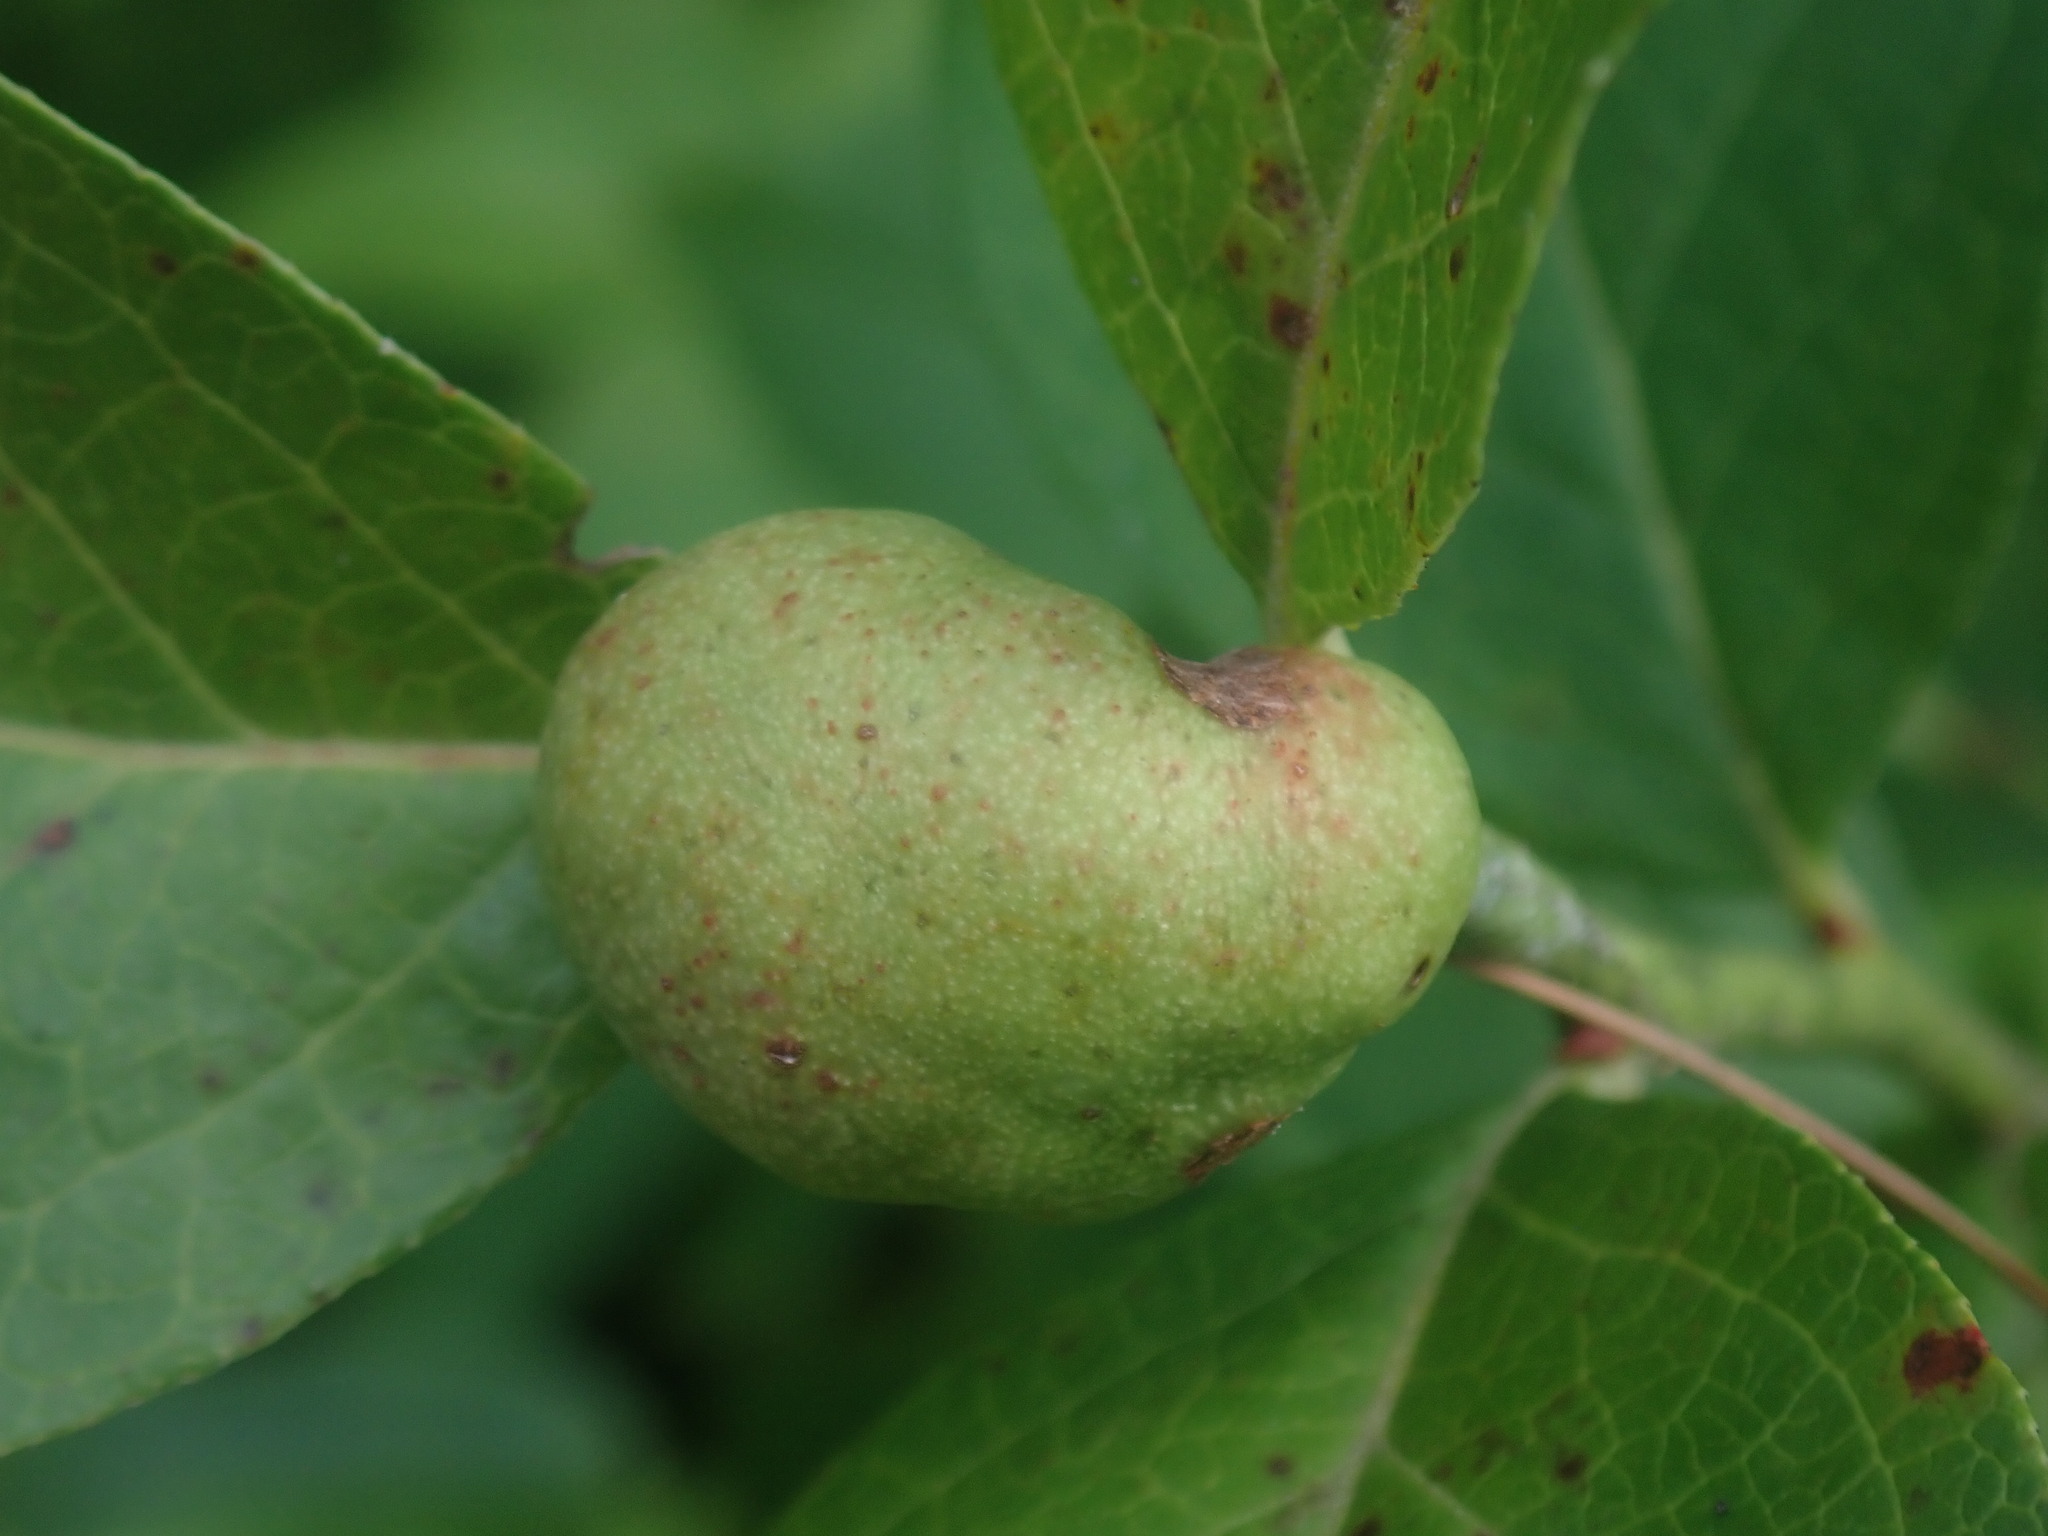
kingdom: Animalia
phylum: Arthropoda
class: Insecta
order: Hymenoptera
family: Pteromalidae
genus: Hemadas
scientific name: Hemadas nubilipennis
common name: Blueberry stem gall wasp
